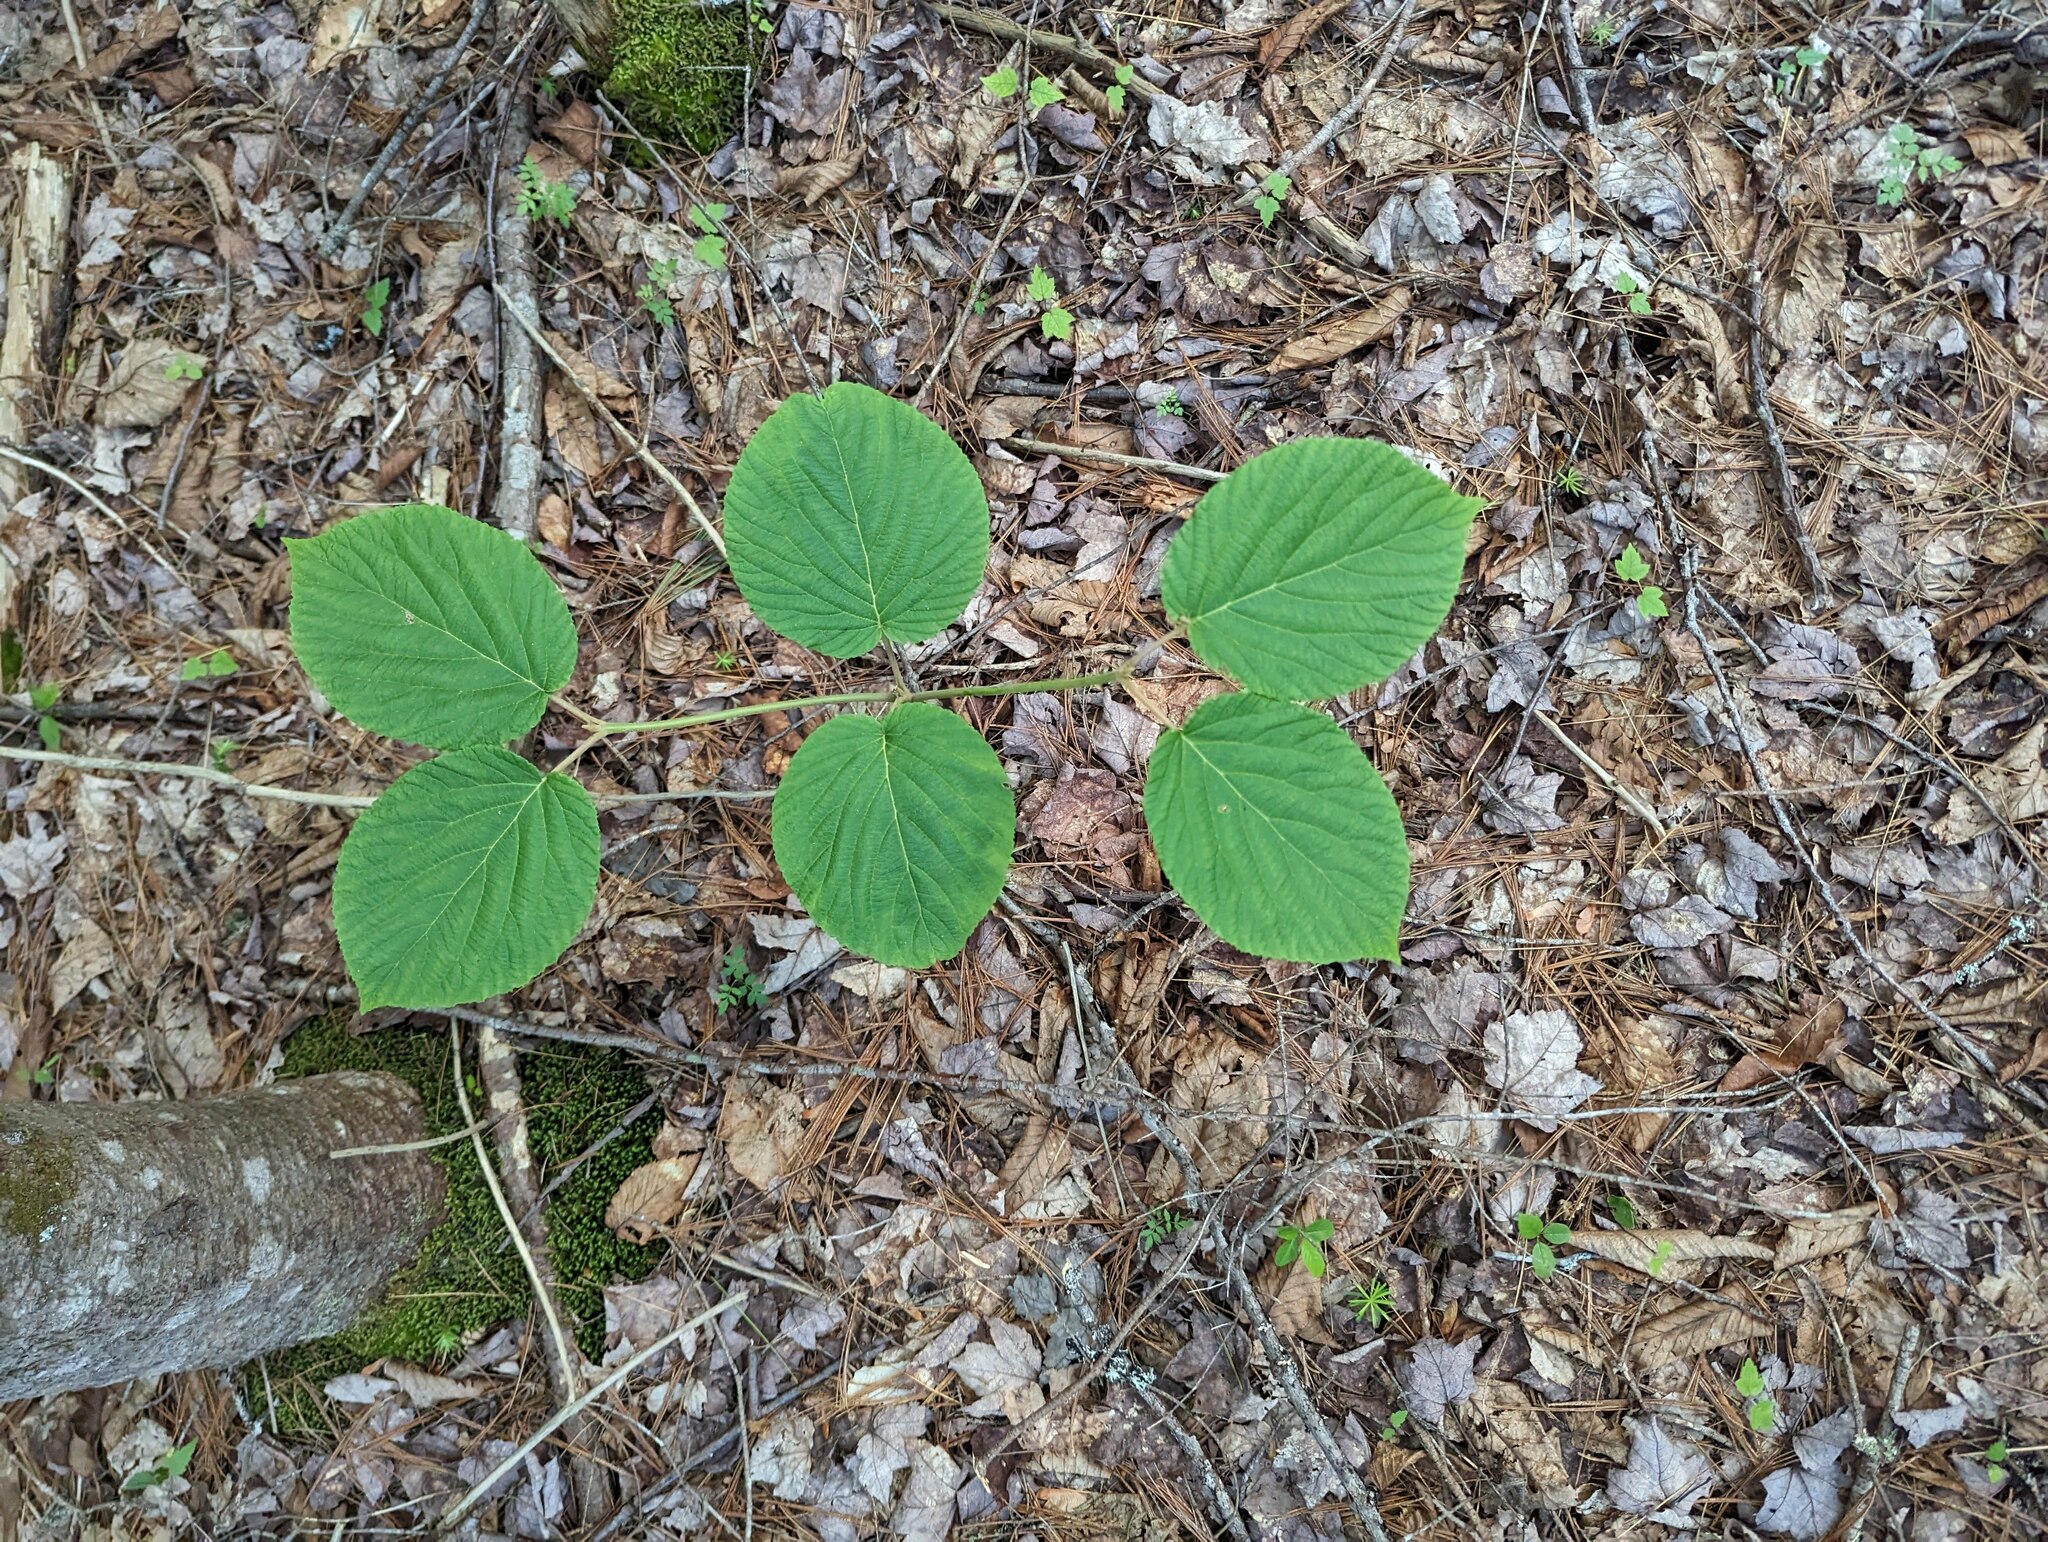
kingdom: Plantae
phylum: Tracheophyta
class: Magnoliopsida
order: Dipsacales
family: Viburnaceae
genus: Viburnum
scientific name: Viburnum lantanoides
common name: Hobblebush
